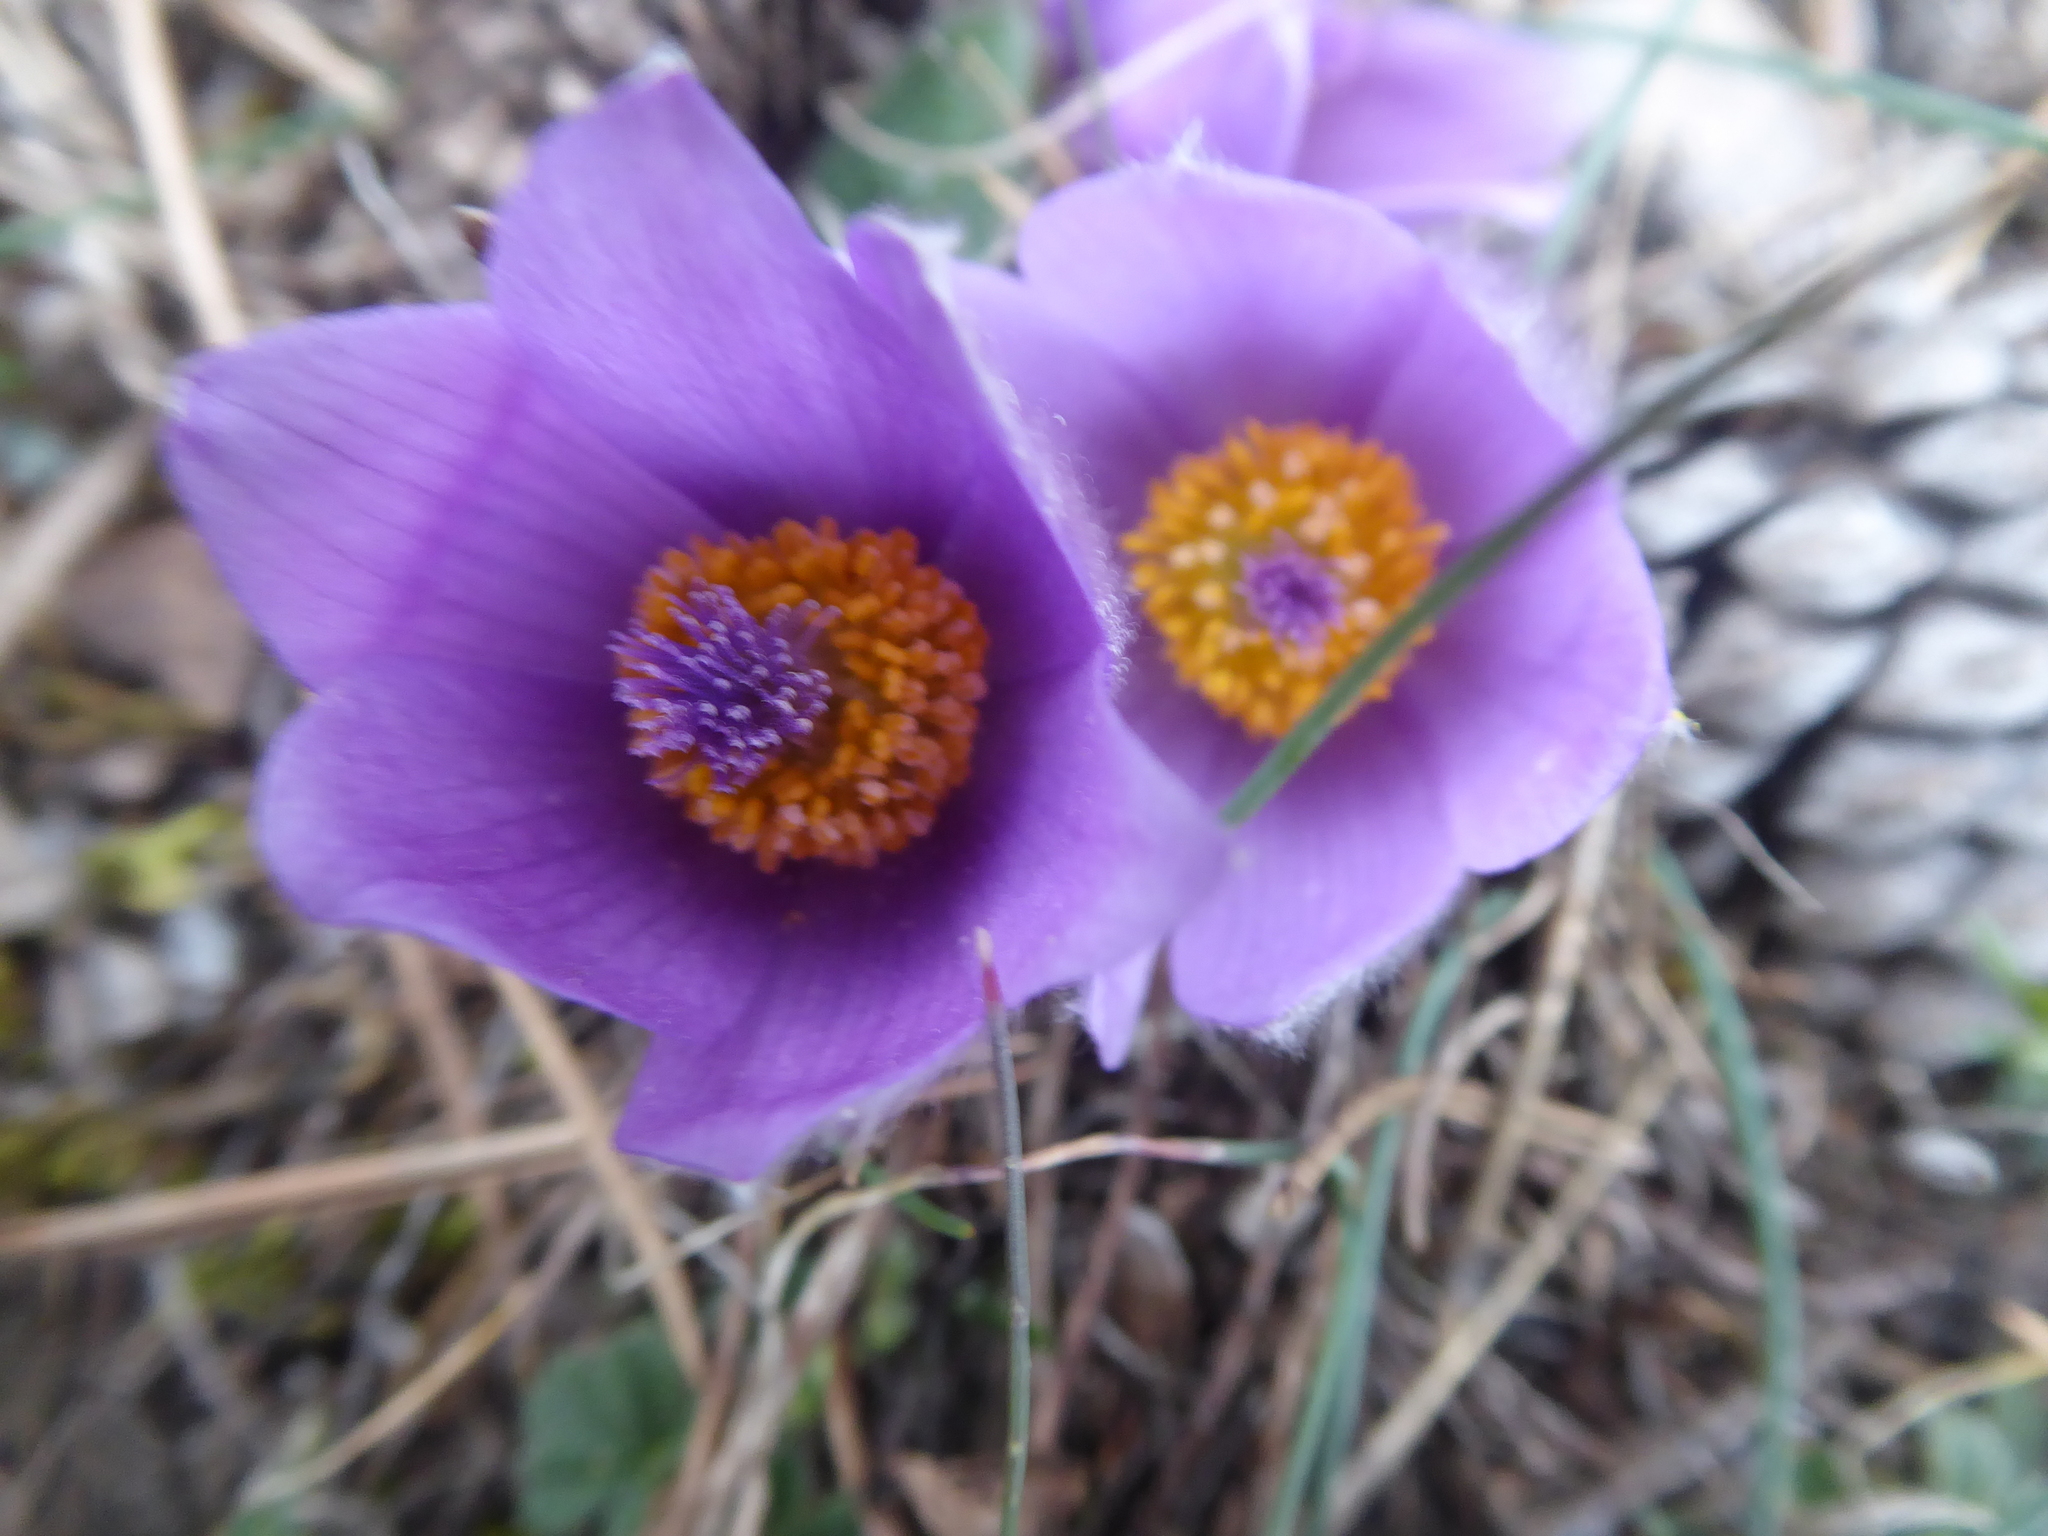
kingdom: Plantae
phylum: Tracheophyta
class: Magnoliopsida
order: Ranunculales
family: Ranunculaceae
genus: Pulsatilla
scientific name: Pulsatilla grandis
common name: Greater pasque flower
